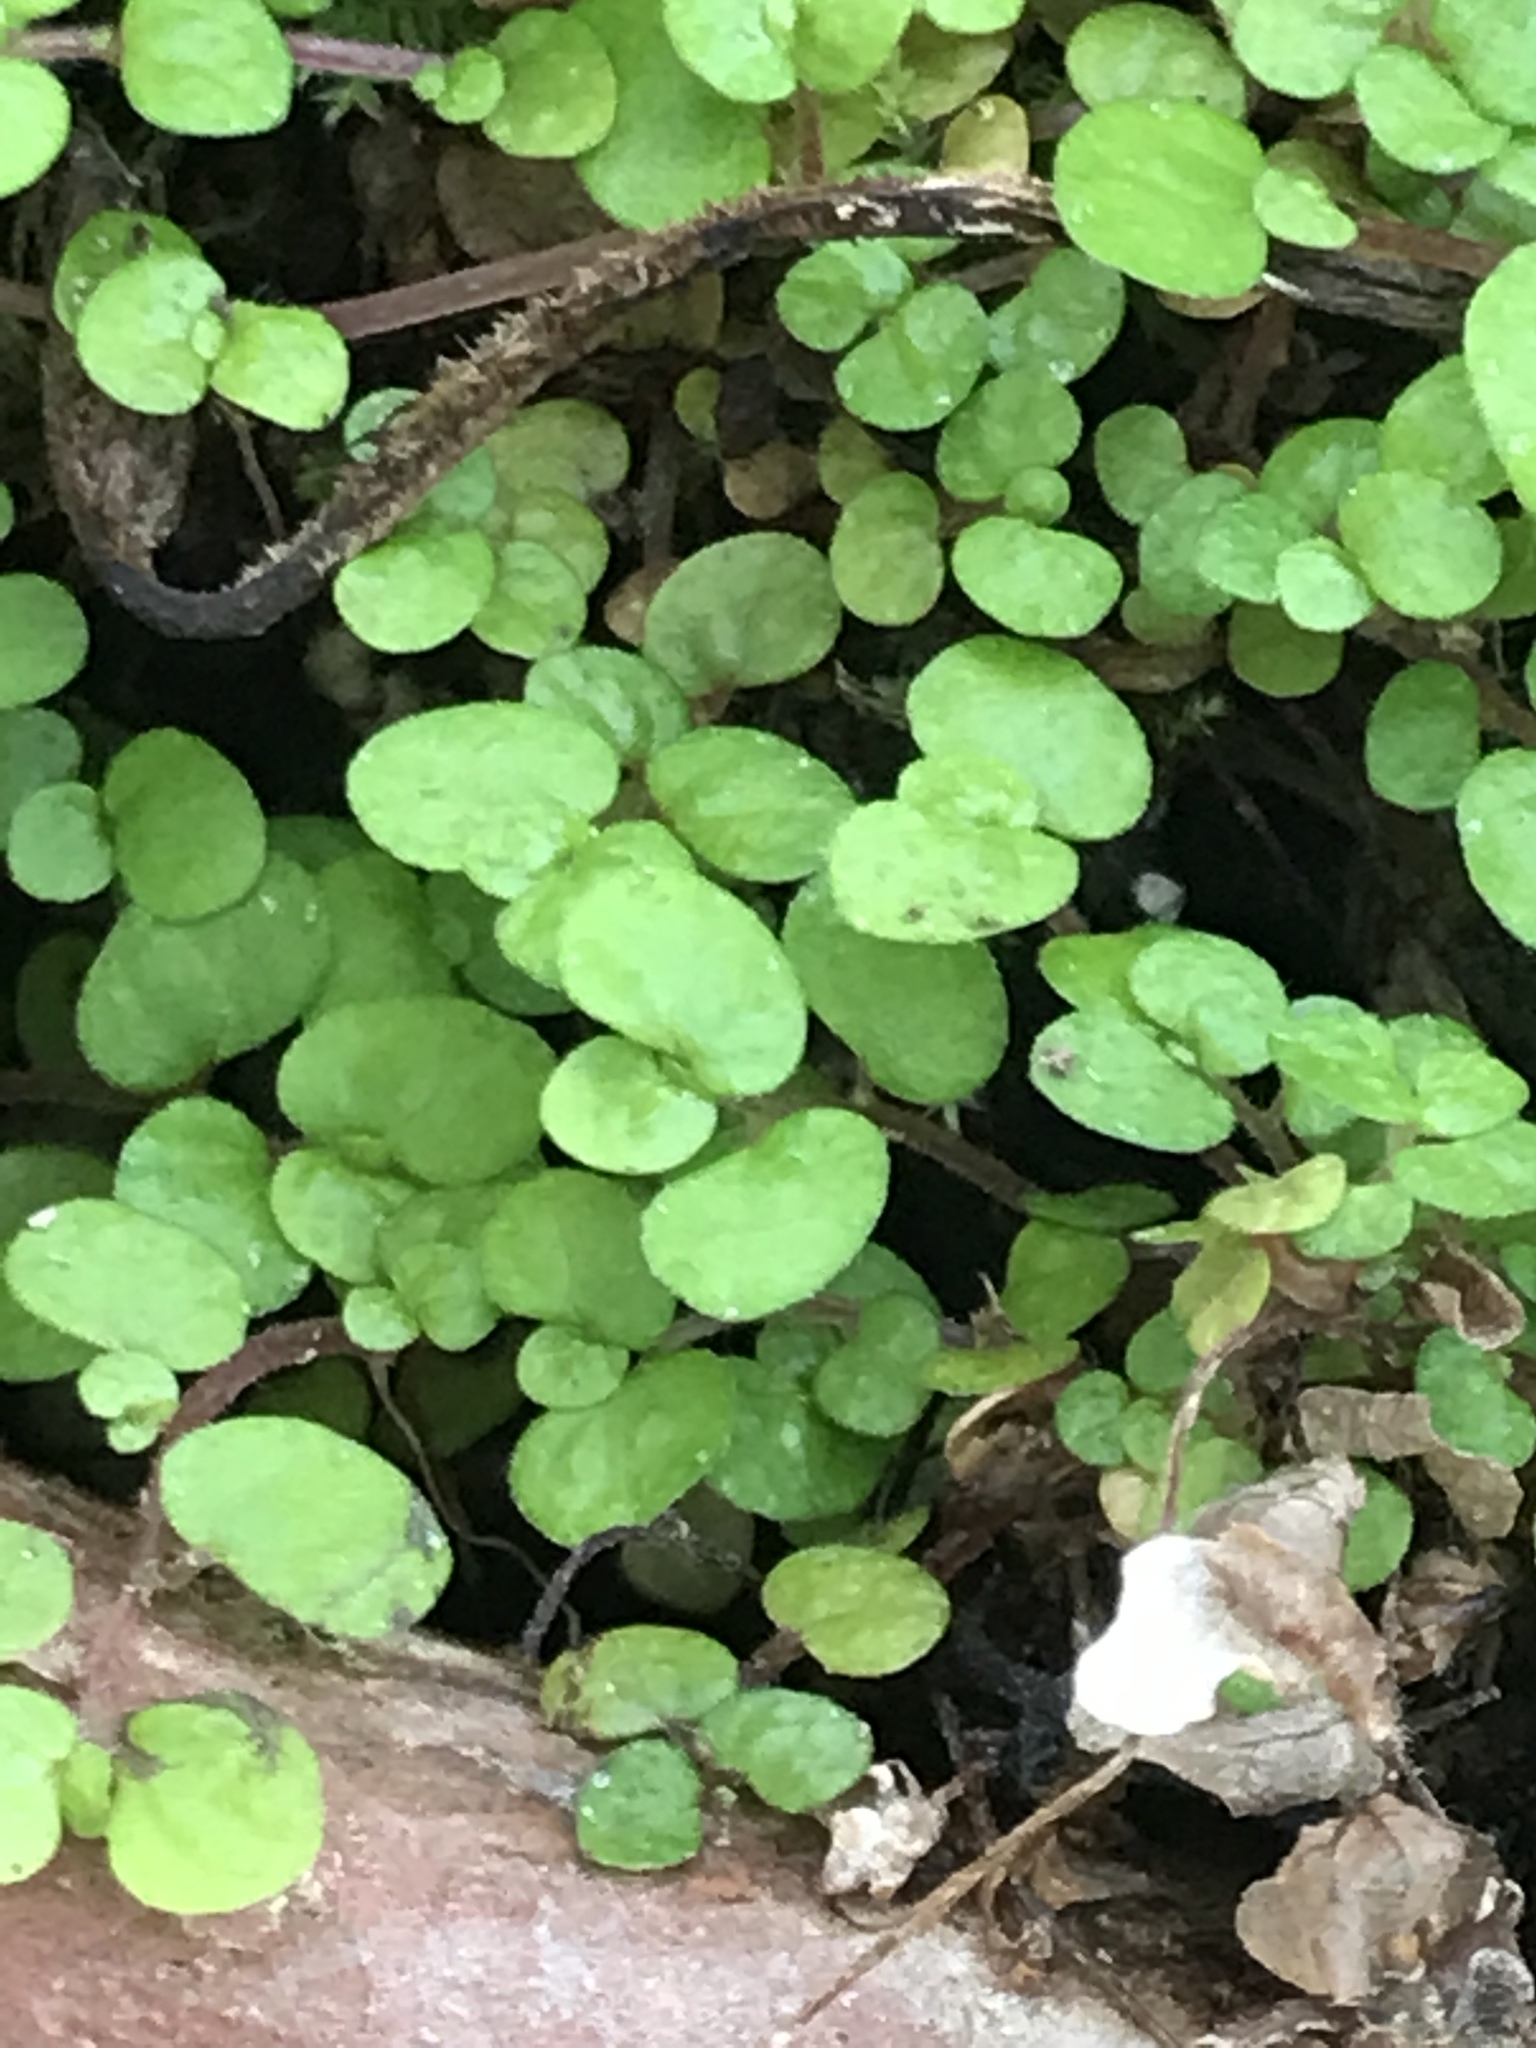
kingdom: Plantae
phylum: Tracheophyta
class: Magnoliopsida
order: Rosales
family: Urticaceae
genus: Soleirolia
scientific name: Soleirolia soleirolii
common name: Mind-your-own-business
